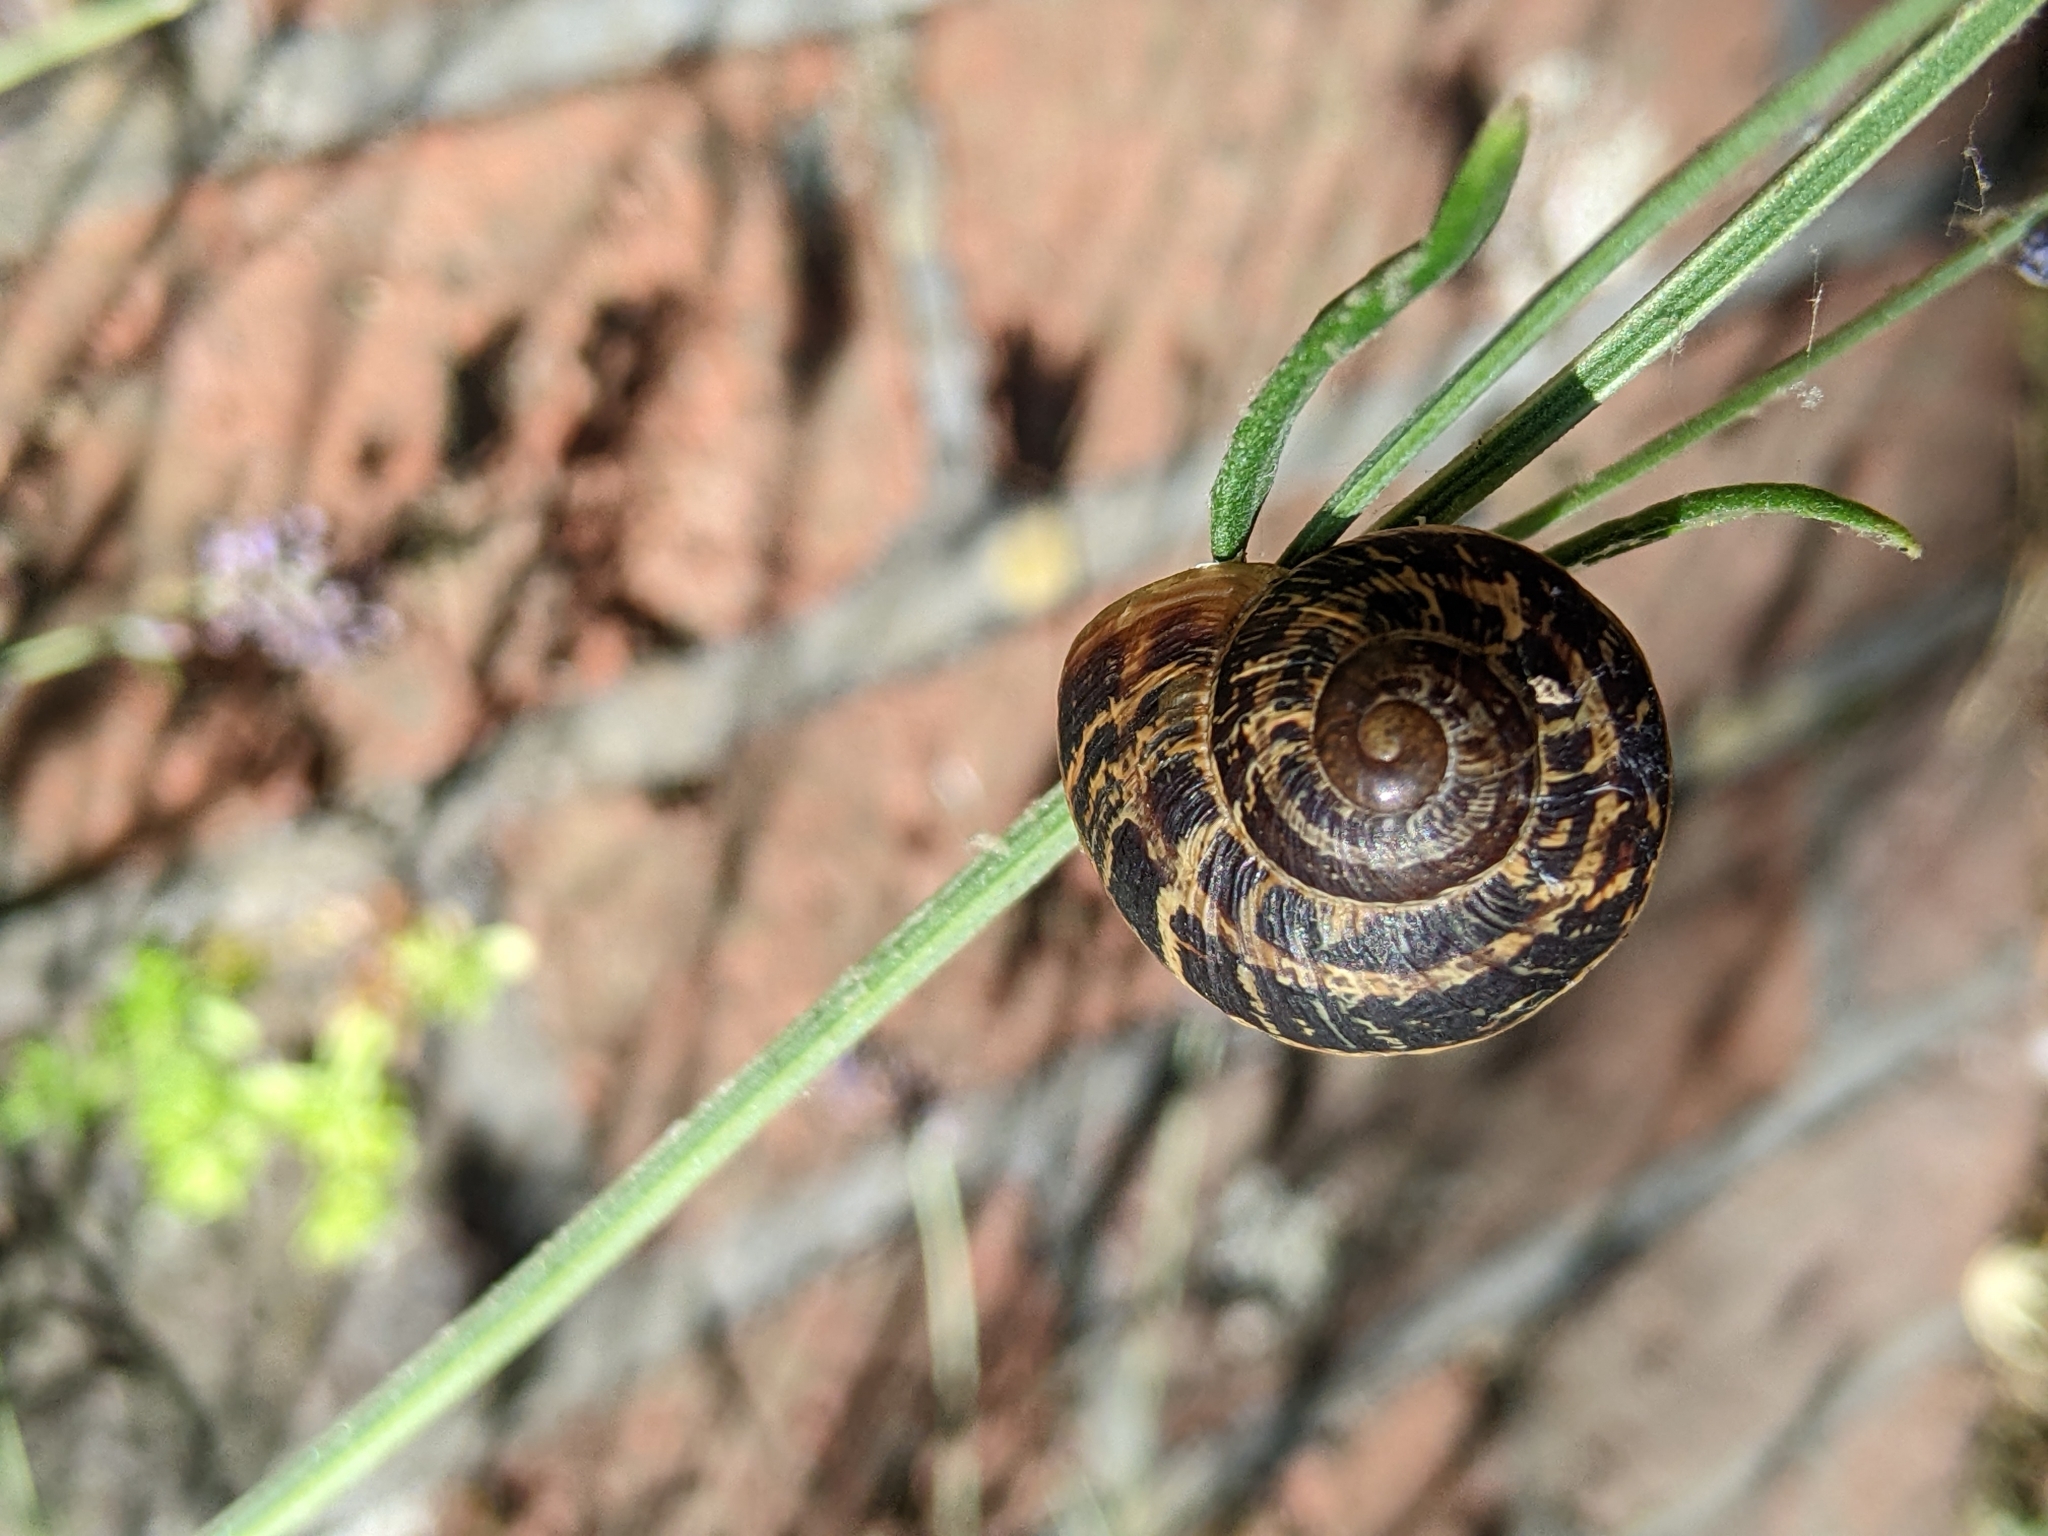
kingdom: Animalia
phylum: Mollusca
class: Gastropoda
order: Stylommatophora
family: Helicidae
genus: Cornu
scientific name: Cornu aspersum
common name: Brown garden snail
